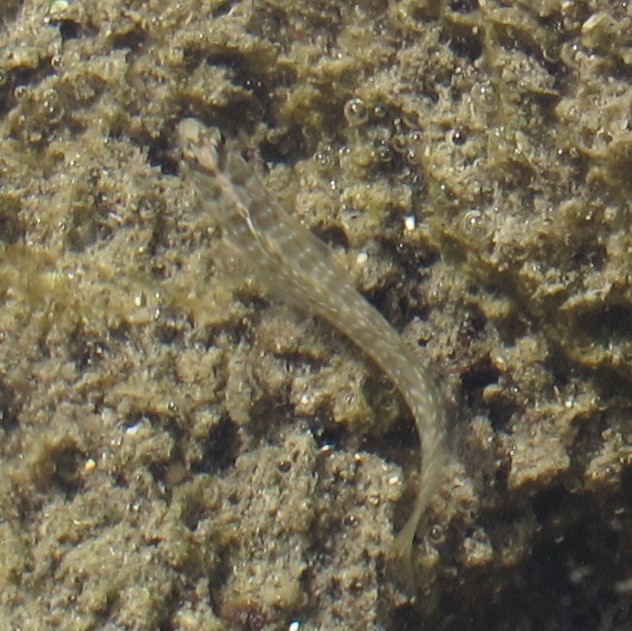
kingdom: Animalia
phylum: Chordata
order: Perciformes
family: Blenniidae
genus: Salaria
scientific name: Salaria pavo
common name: Peacock blenny
